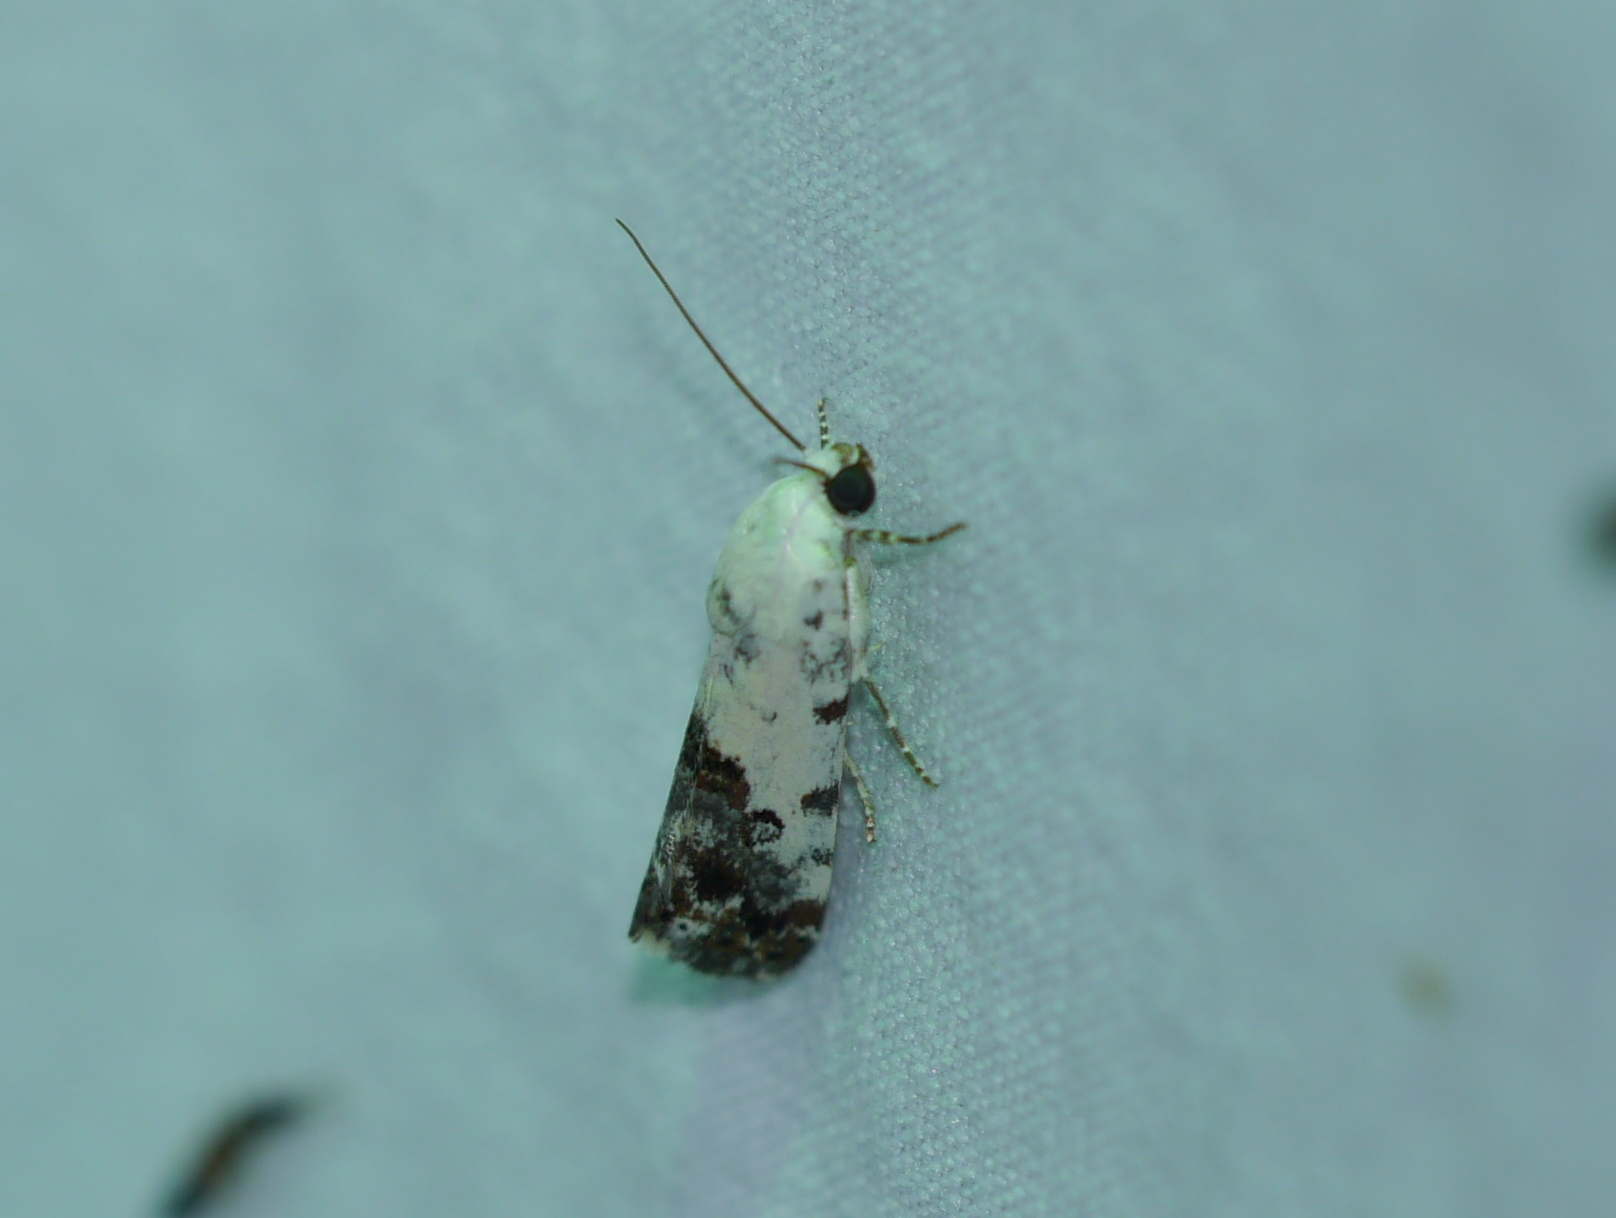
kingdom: Animalia
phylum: Arthropoda
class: Insecta
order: Lepidoptera
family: Noctuidae
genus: Acontia
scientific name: Acontia phecolisca
